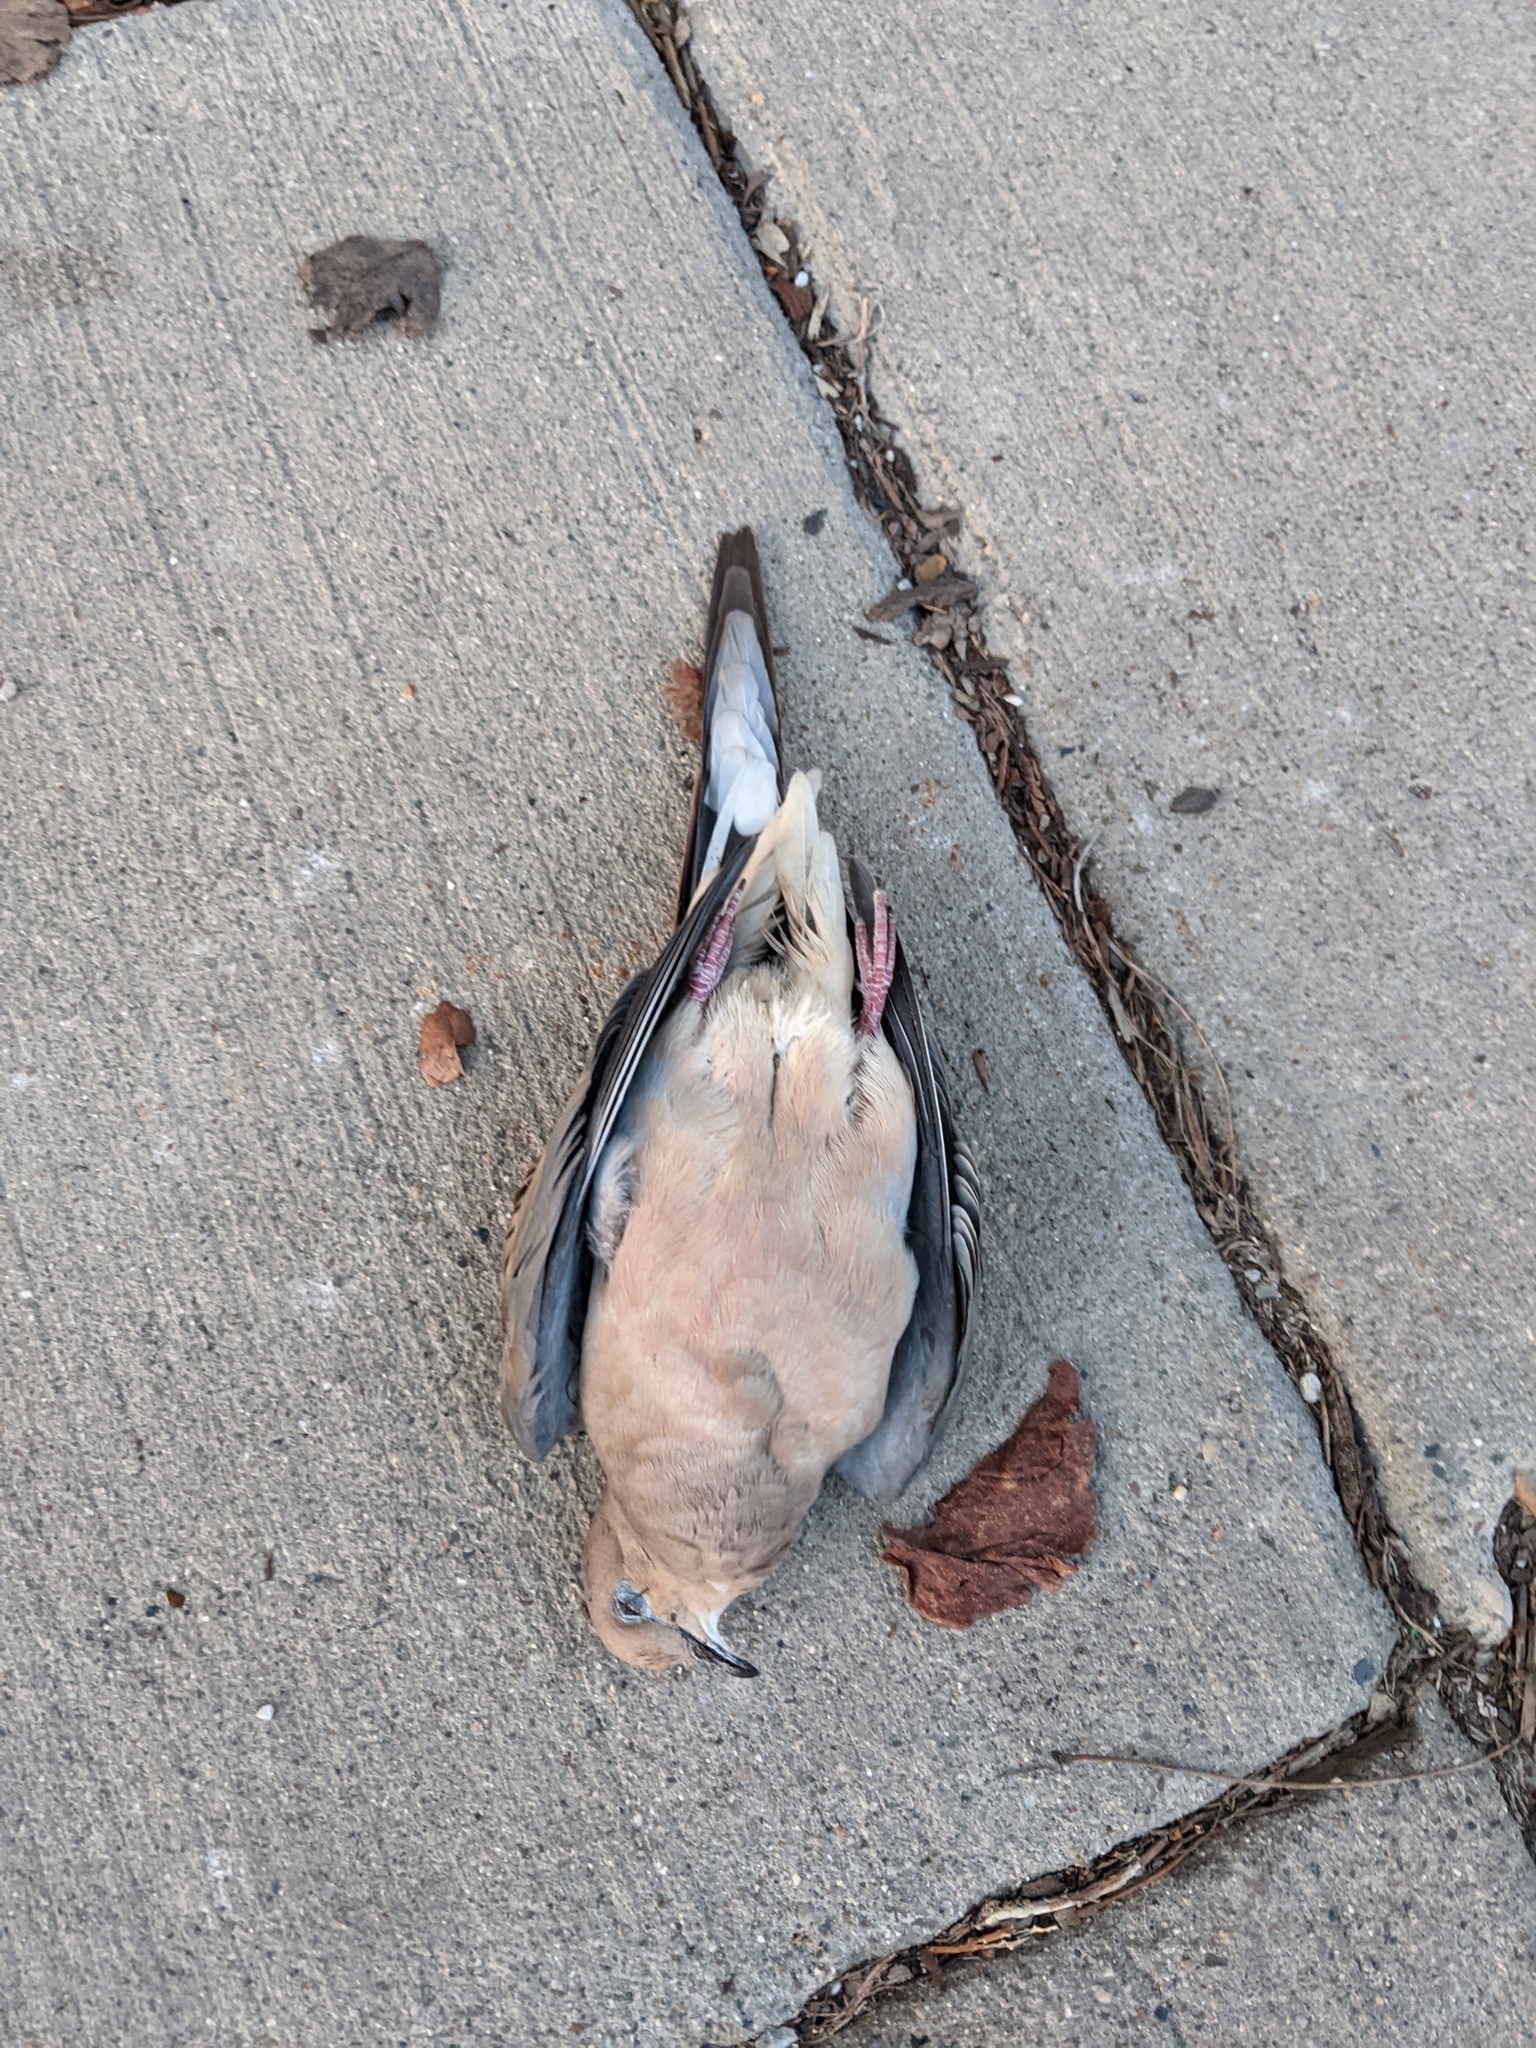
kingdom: Animalia
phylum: Chordata
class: Aves
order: Columbiformes
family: Columbidae
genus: Zenaida
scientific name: Zenaida macroura
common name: Mourning dove
